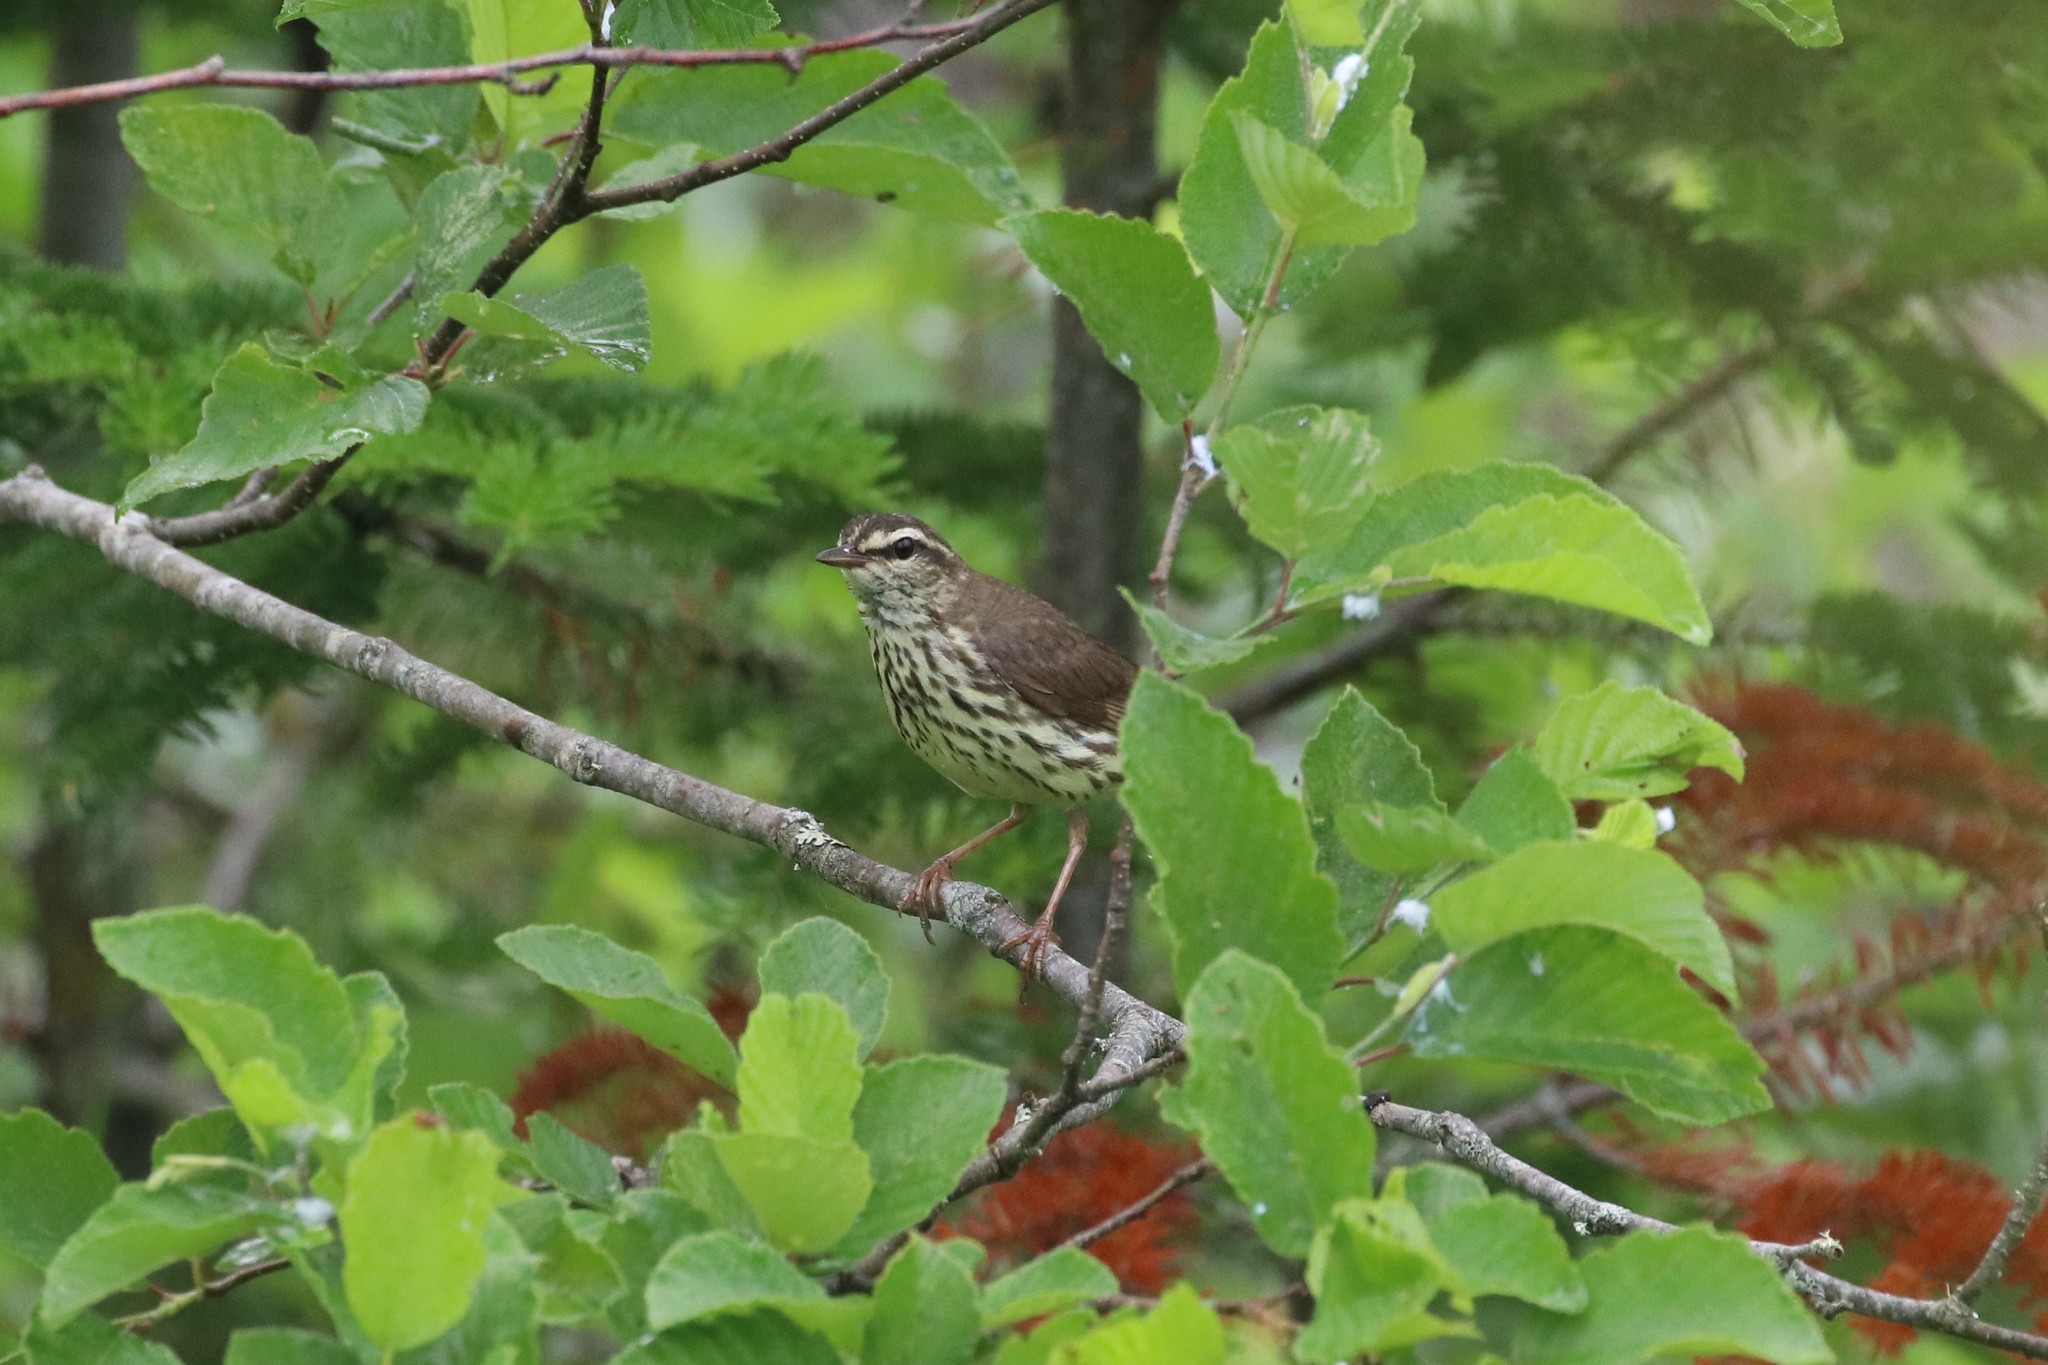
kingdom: Animalia
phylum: Chordata
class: Aves
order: Passeriformes
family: Parulidae
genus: Parkesia
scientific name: Parkesia noveboracensis
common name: Northern waterthrush
